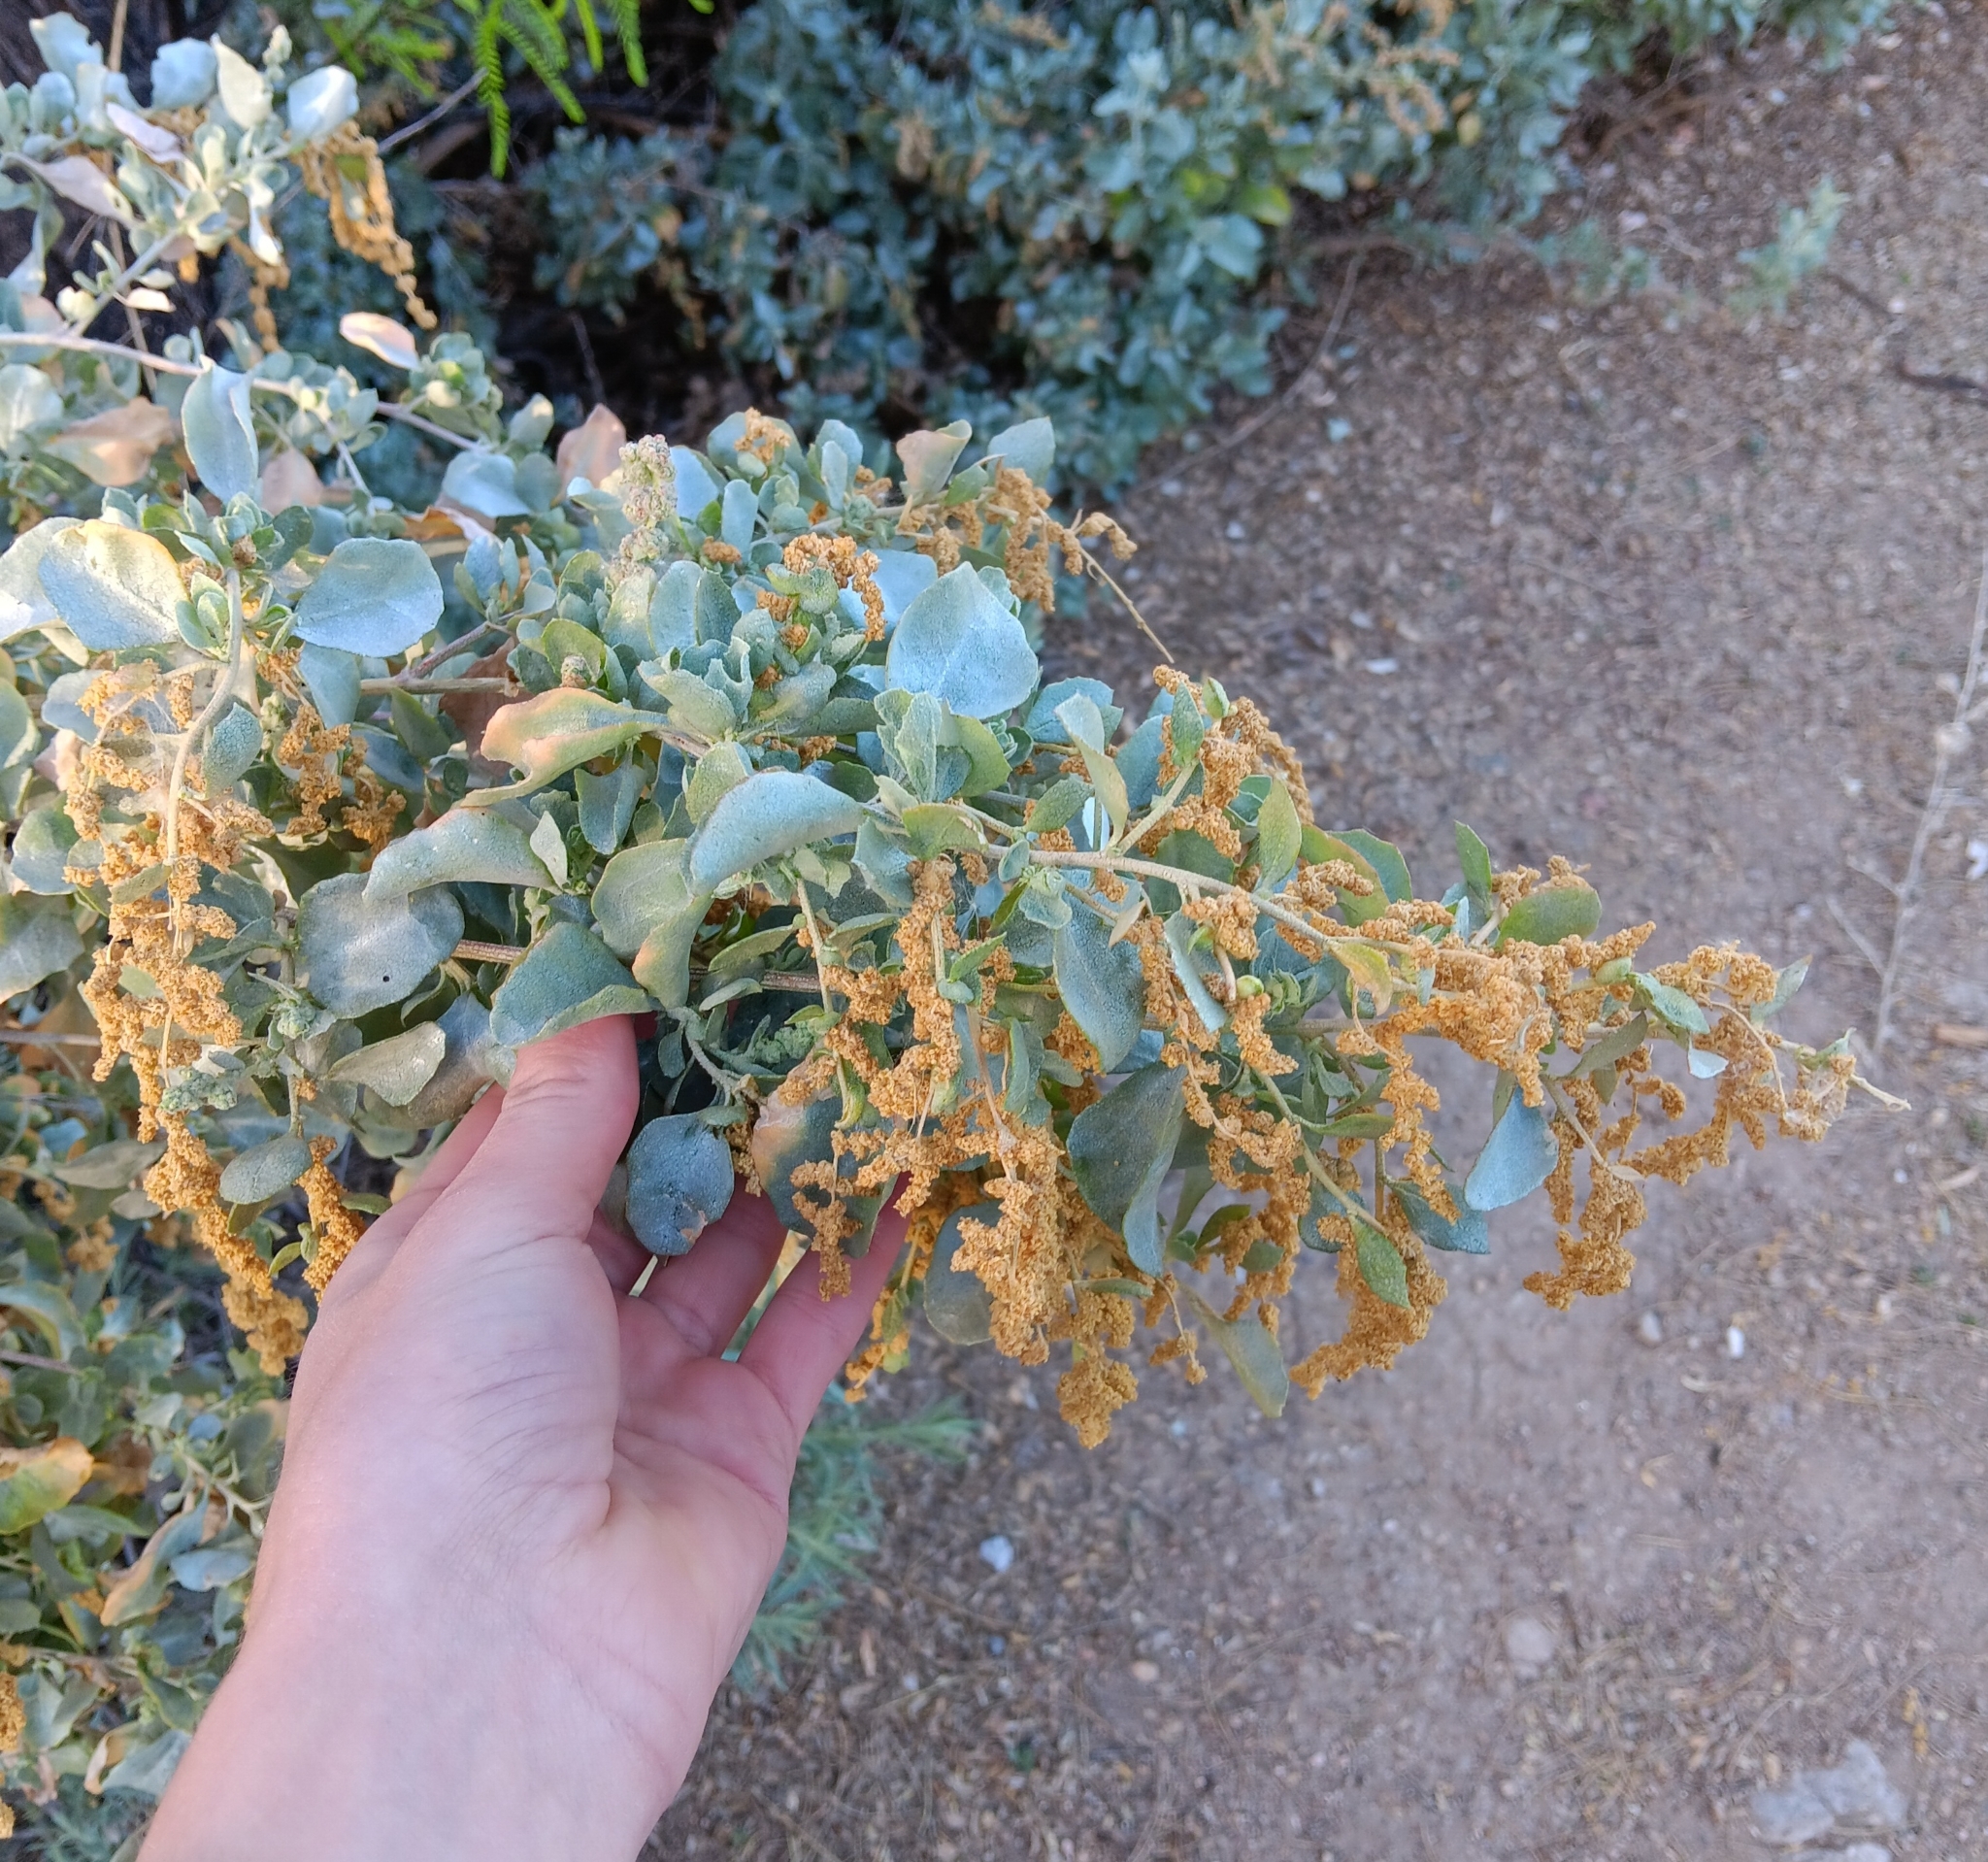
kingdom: Plantae
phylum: Tracheophyta
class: Magnoliopsida
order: Caryophyllales
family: Amaranthaceae
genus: Atriplex
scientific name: Atriplex lentiformis
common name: Big saltbush
